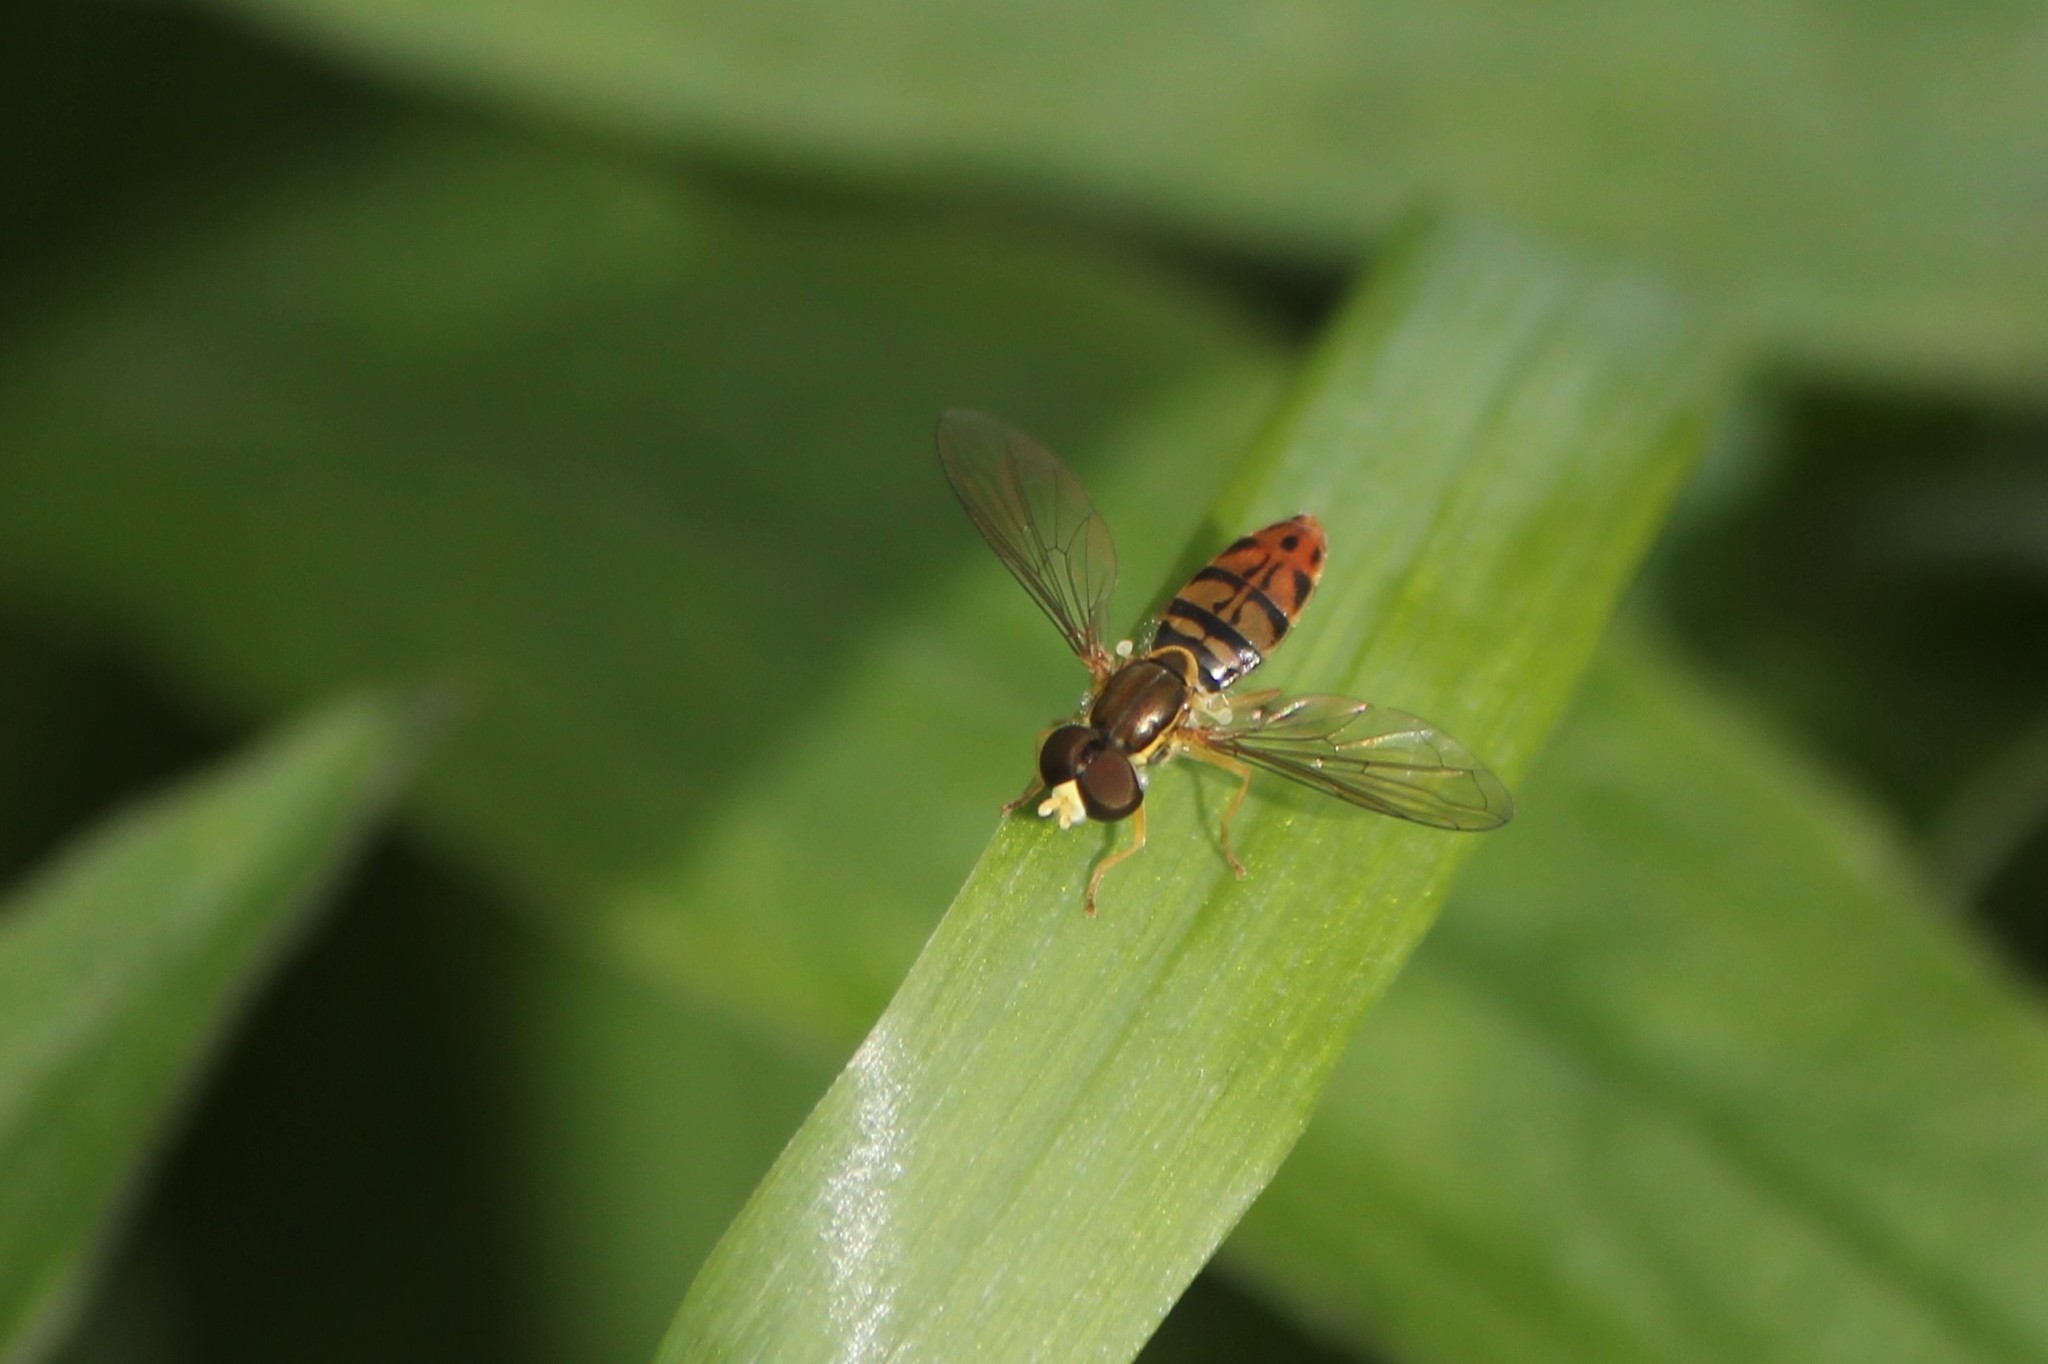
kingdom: Animalia
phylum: Arthropoda
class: Insecta
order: Diptera
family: Syrphidae
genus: Toxomerus
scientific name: Toxomerus marginatus
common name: Syrphid fly
